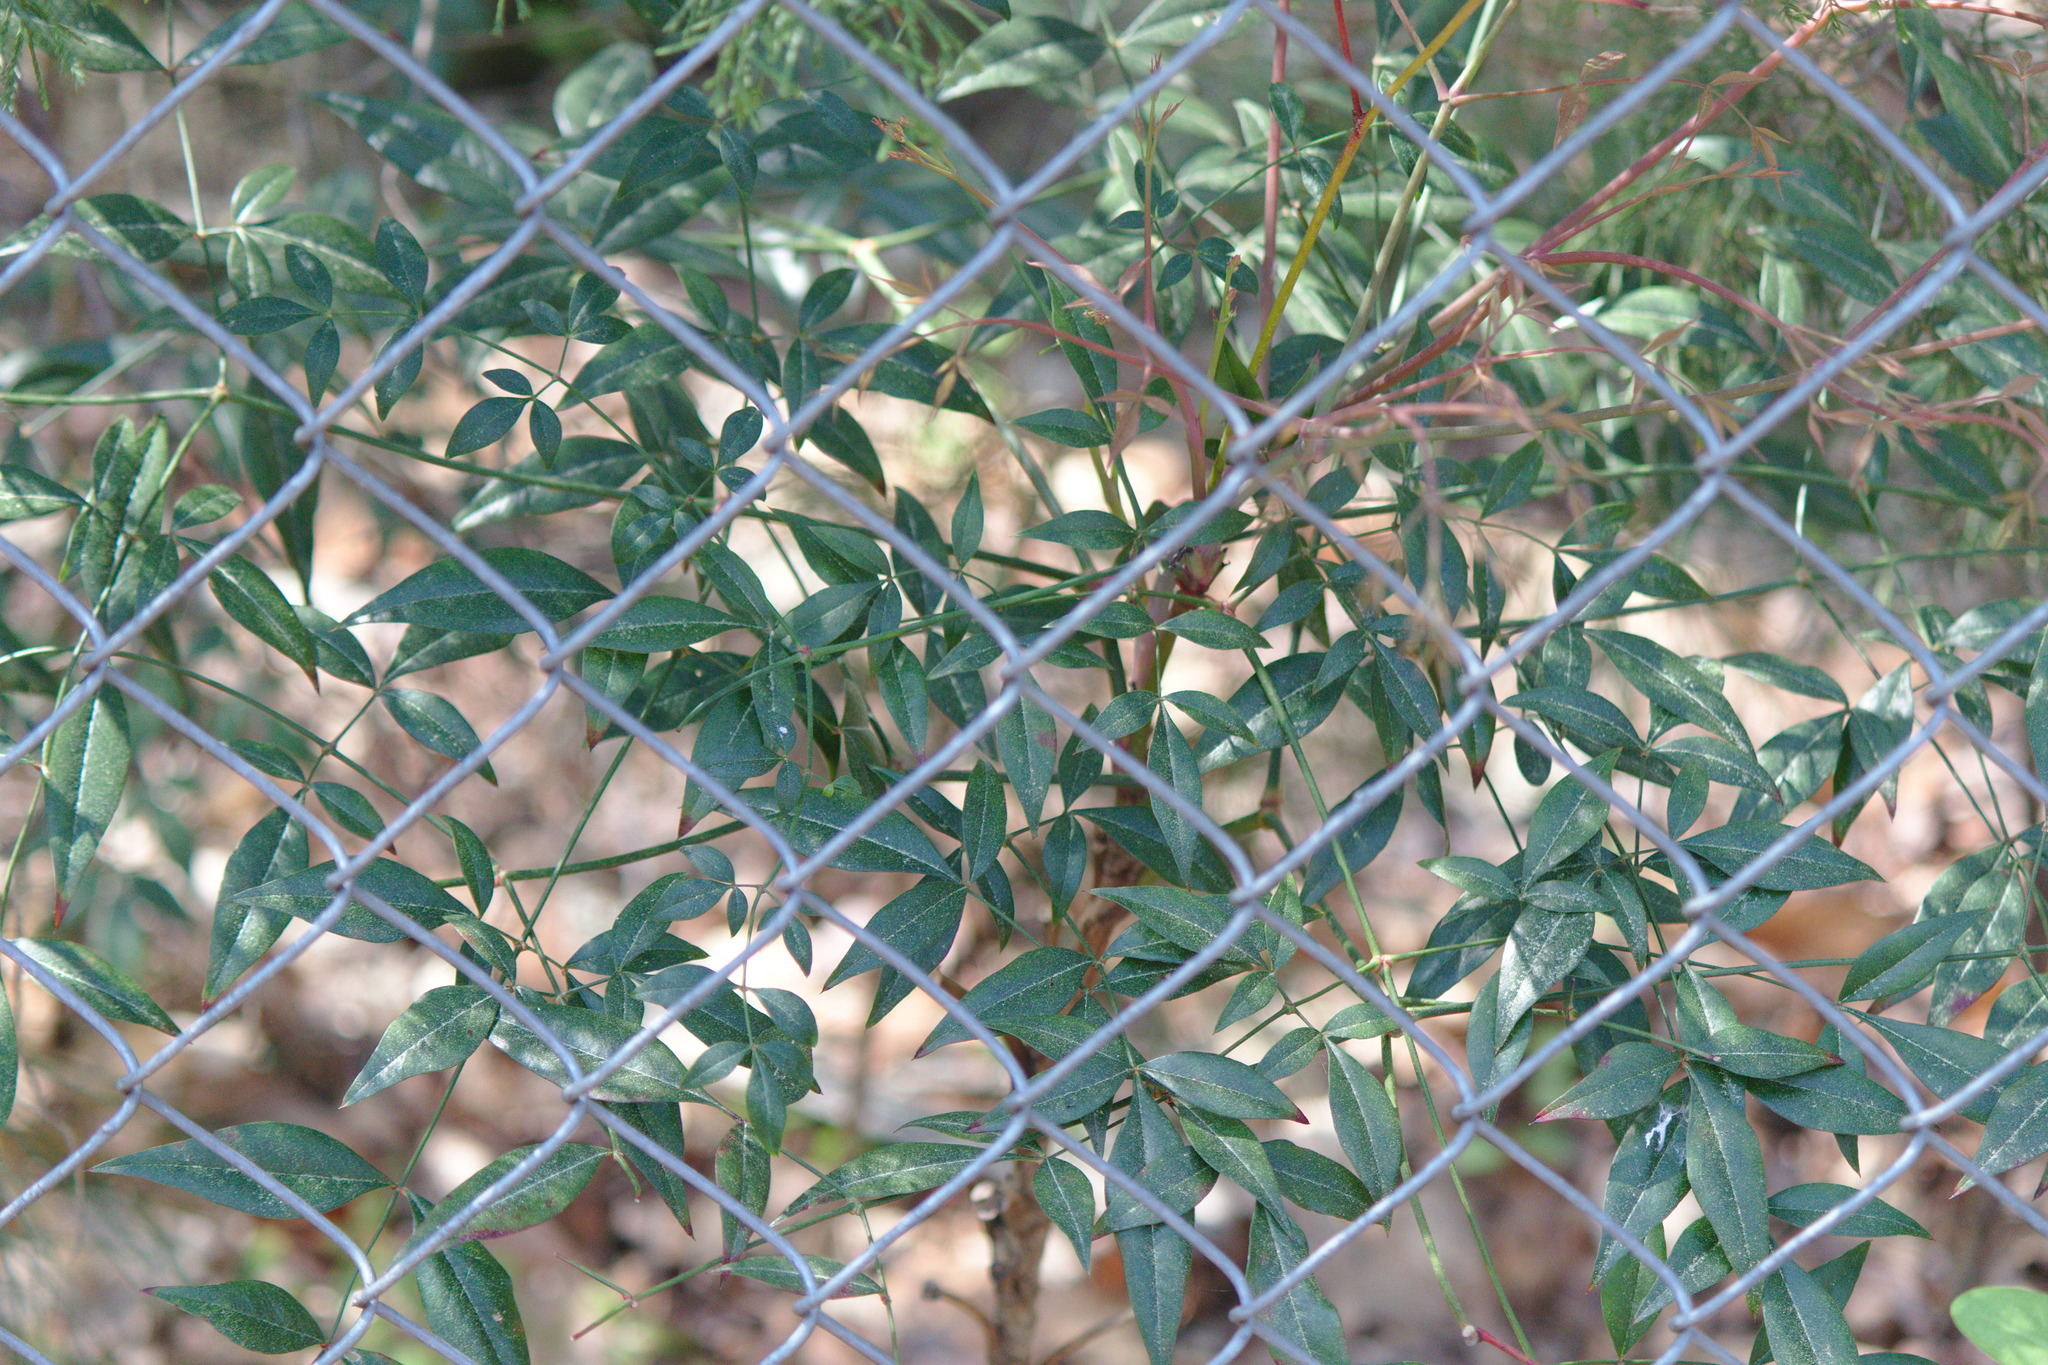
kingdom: Plantae
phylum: Tracheophyta
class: Magnoliopsida
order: Ranunculales
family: Berberidaceae
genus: Nandina
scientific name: Nandina domestica
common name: Sacred bamboo
